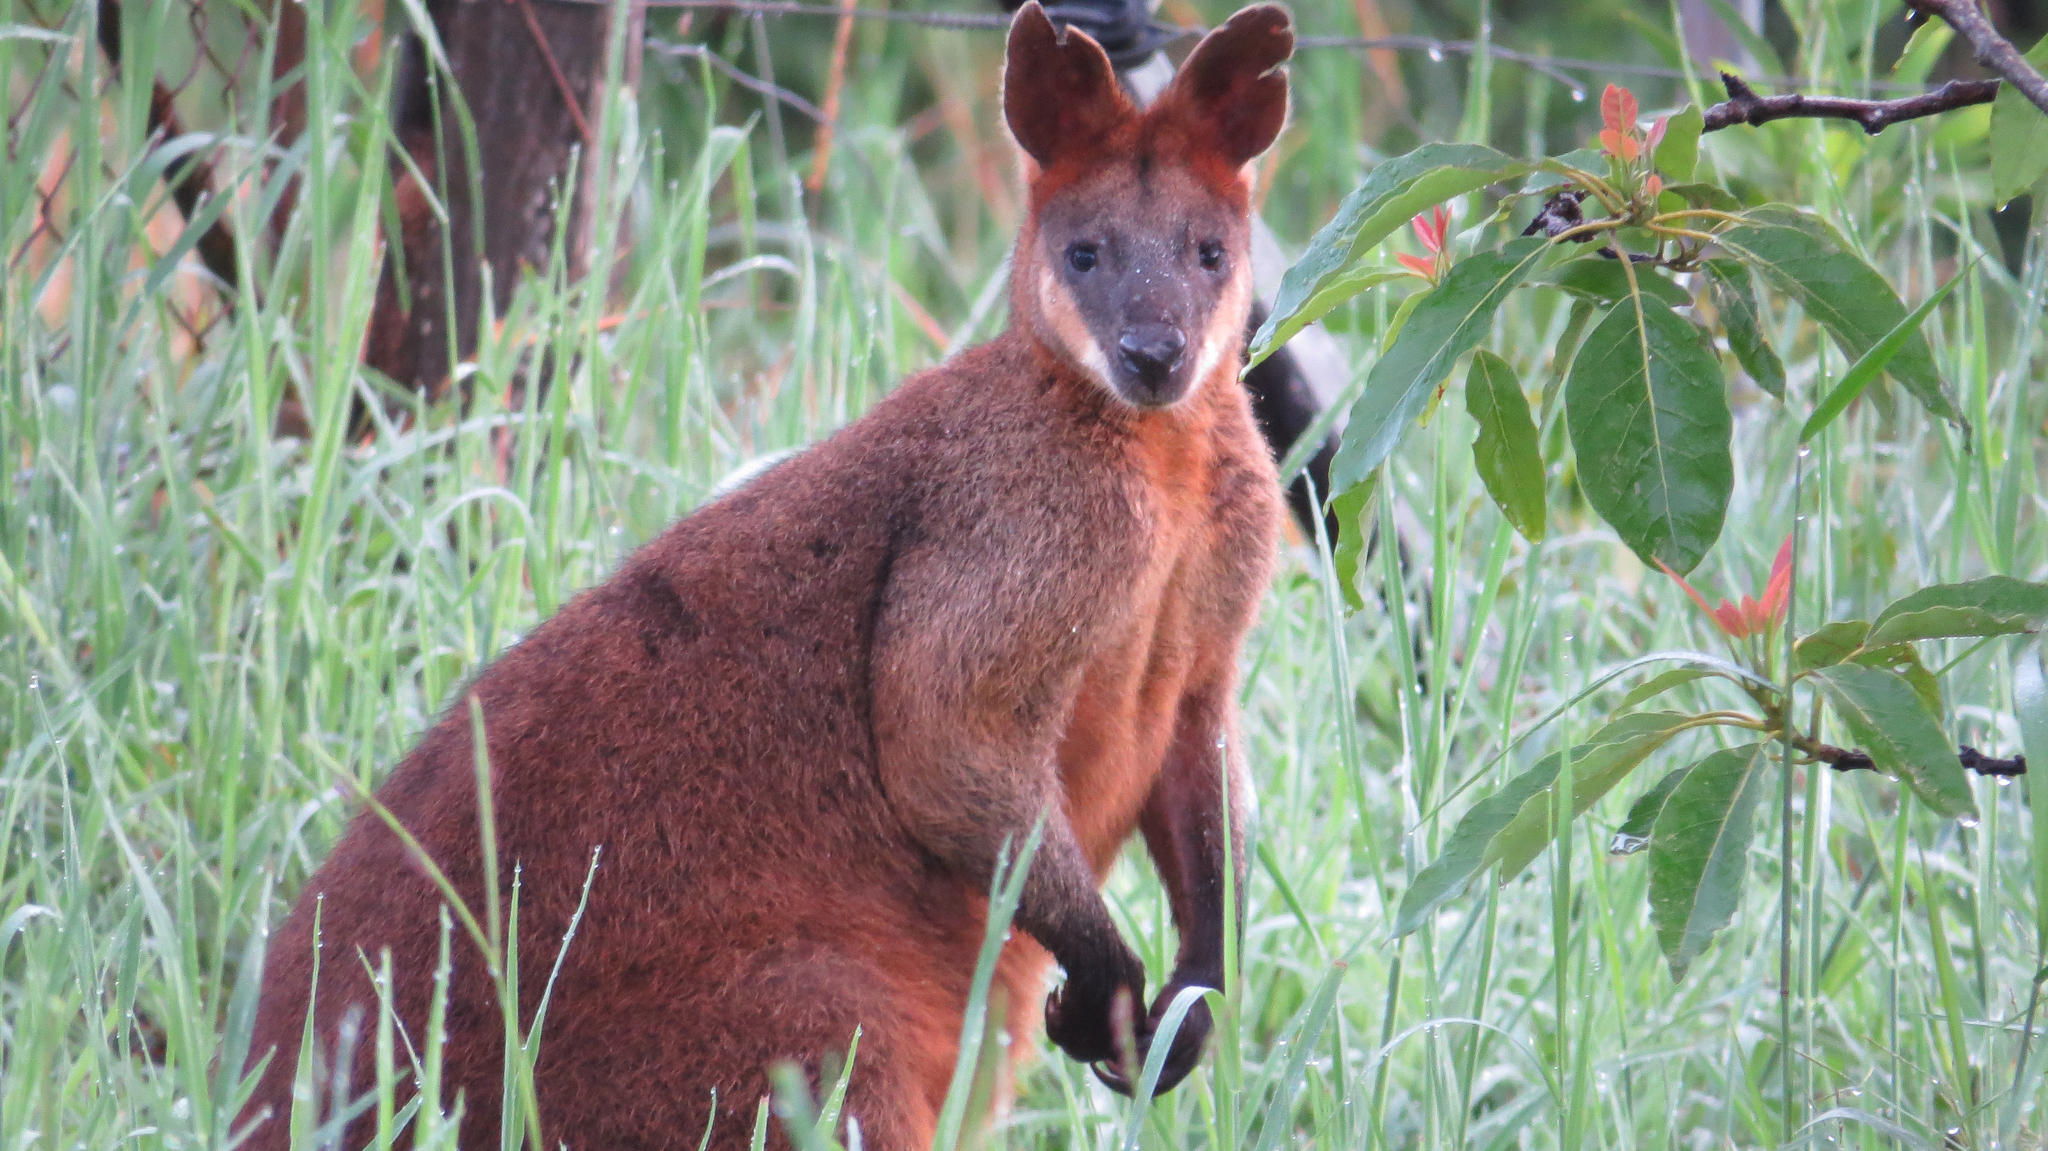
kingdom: Animalia
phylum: Chordata
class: Mammalia
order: Diprotodontia
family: Macropodidae
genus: Wallabia
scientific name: Wallabia bicolor
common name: Swamp wallaby
